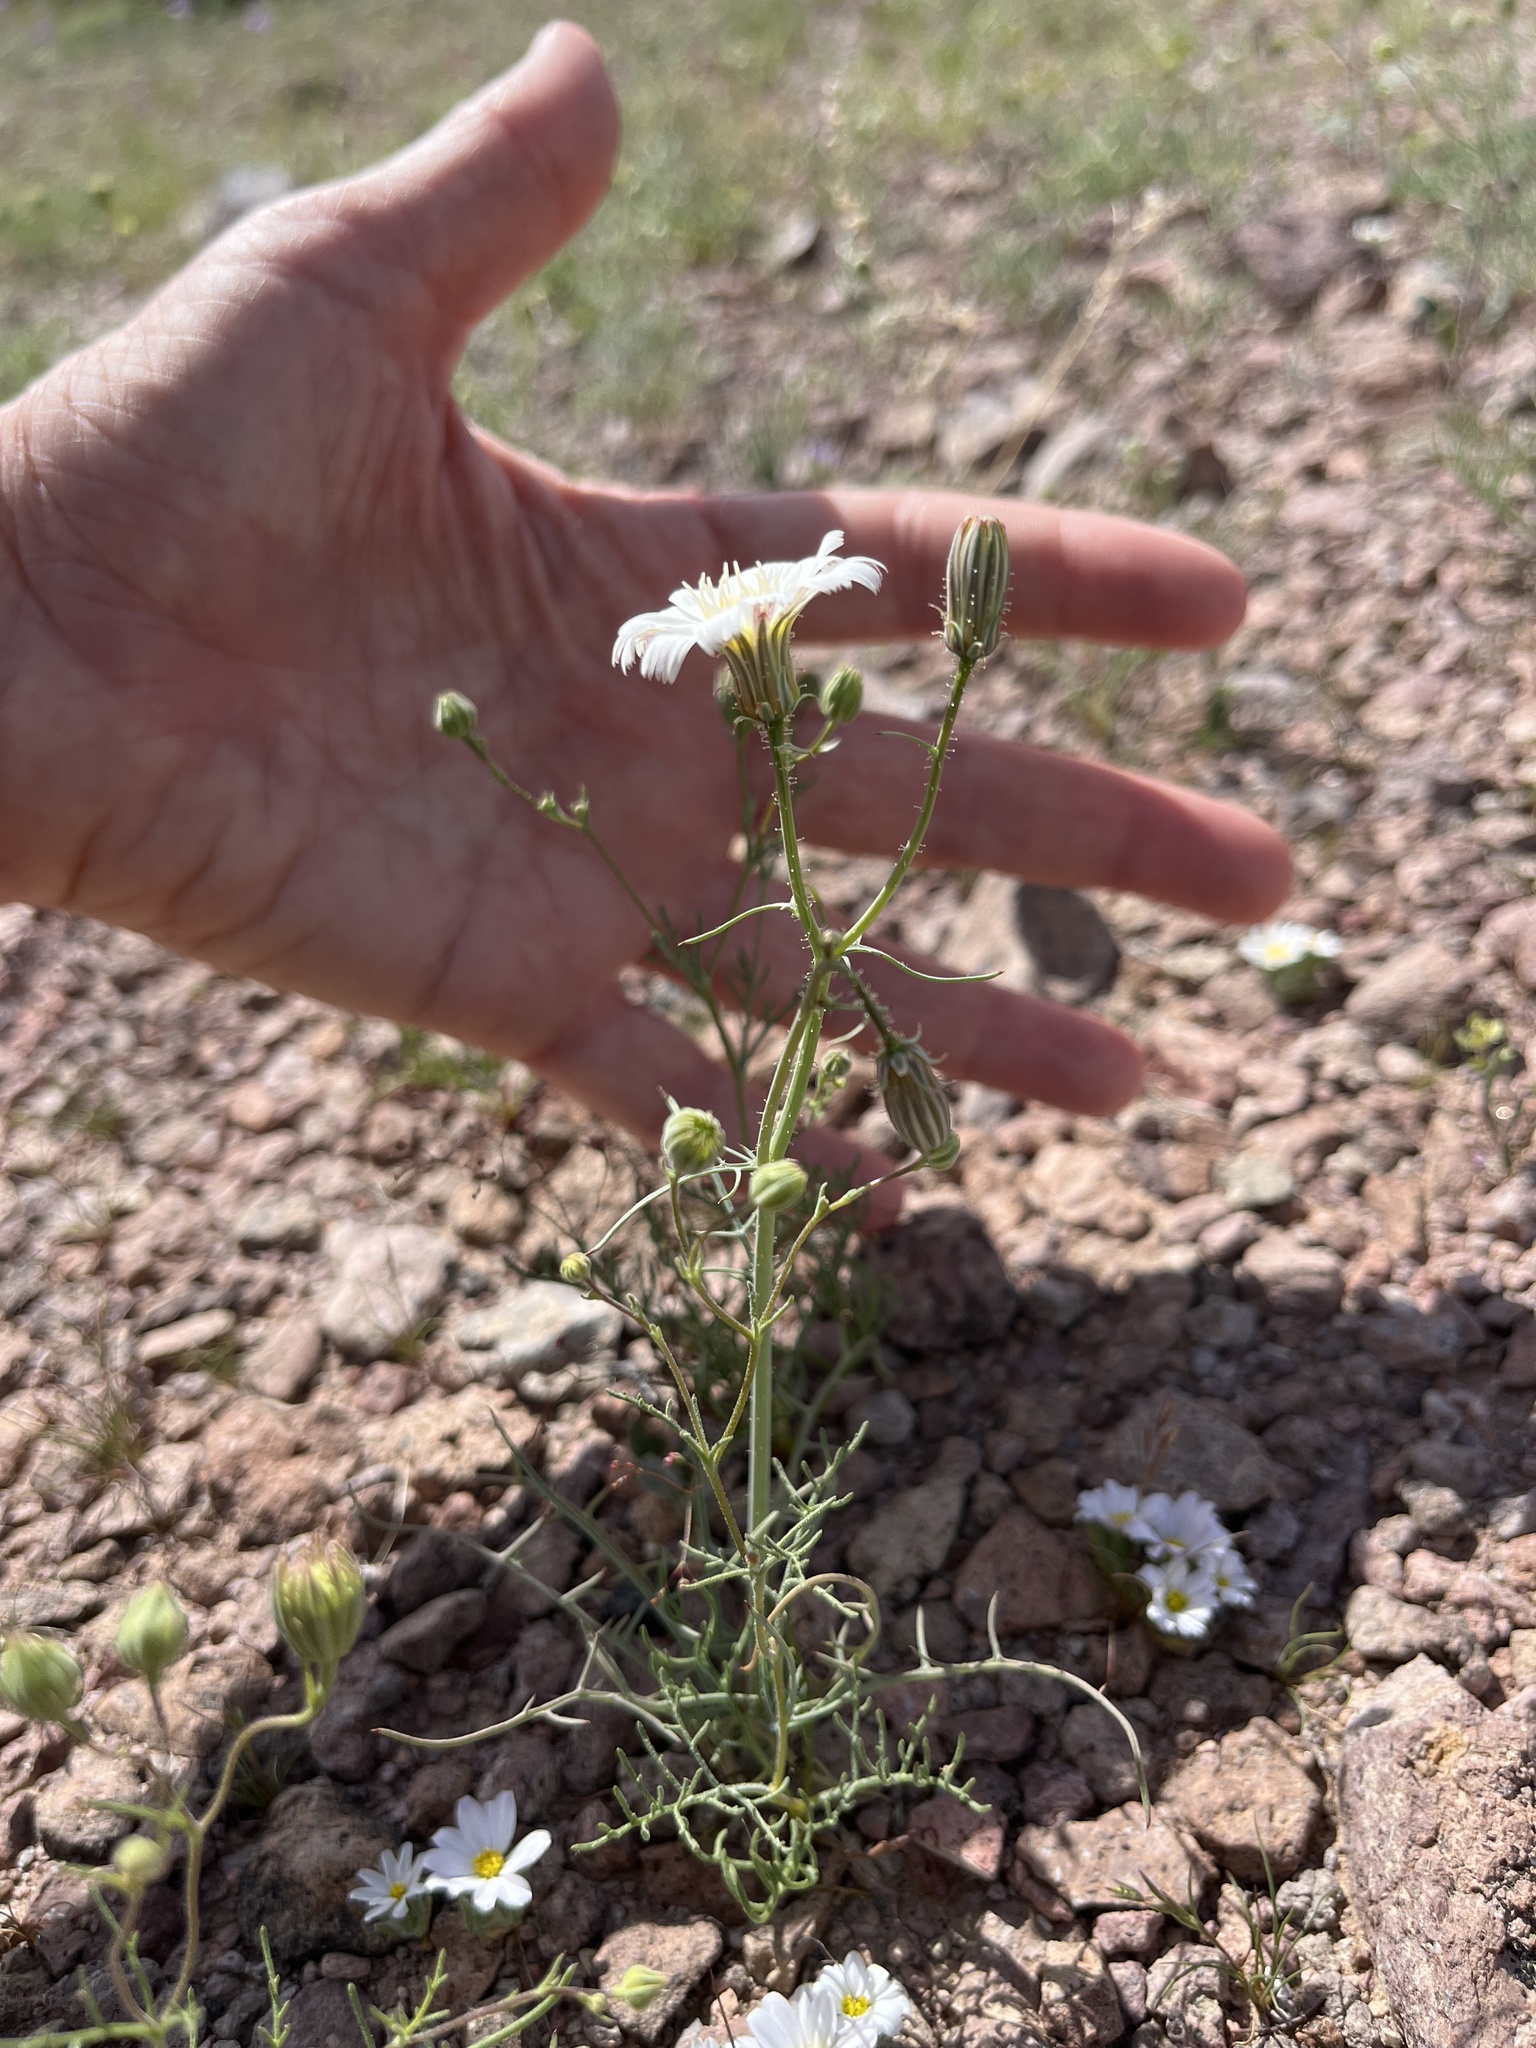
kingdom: Plantae
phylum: Tracheophyta
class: Magnoliopsida
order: Asterales
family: Asteraceae
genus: Rafinesquia
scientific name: Rafinesquia neomexicana
